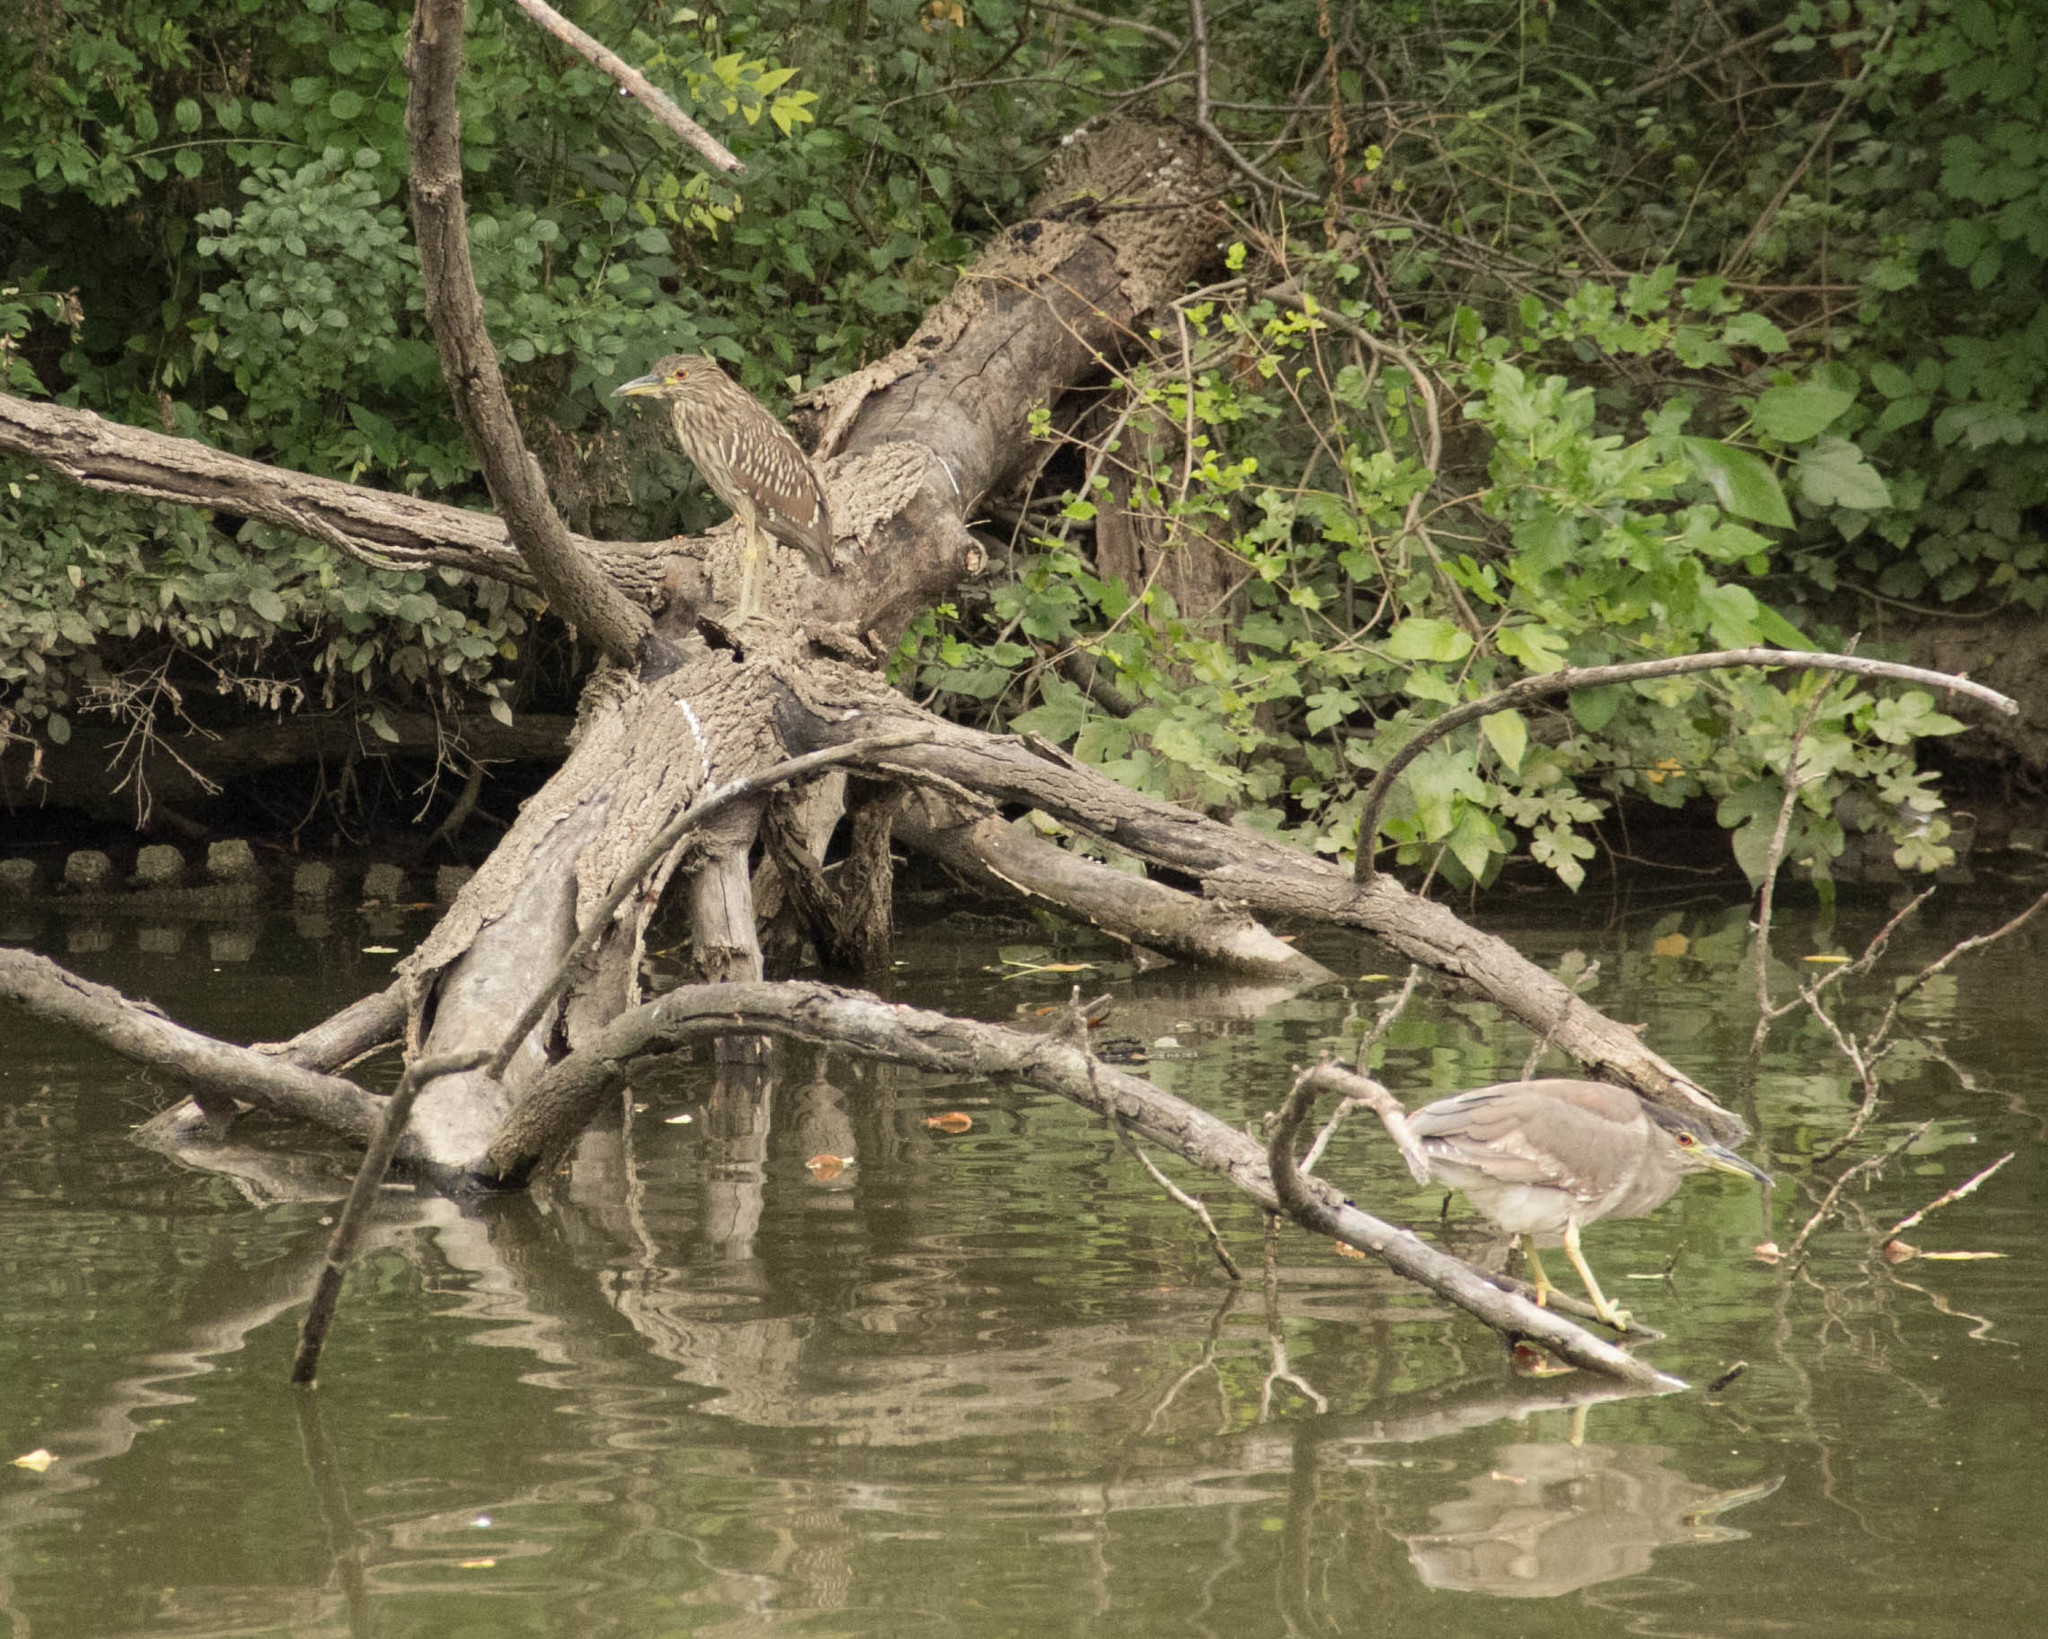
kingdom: Animalia
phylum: Chordata
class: Aves
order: Pelecaniformes
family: Ardeidae
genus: Butorides
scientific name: Butorides virescens
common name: Green heron
